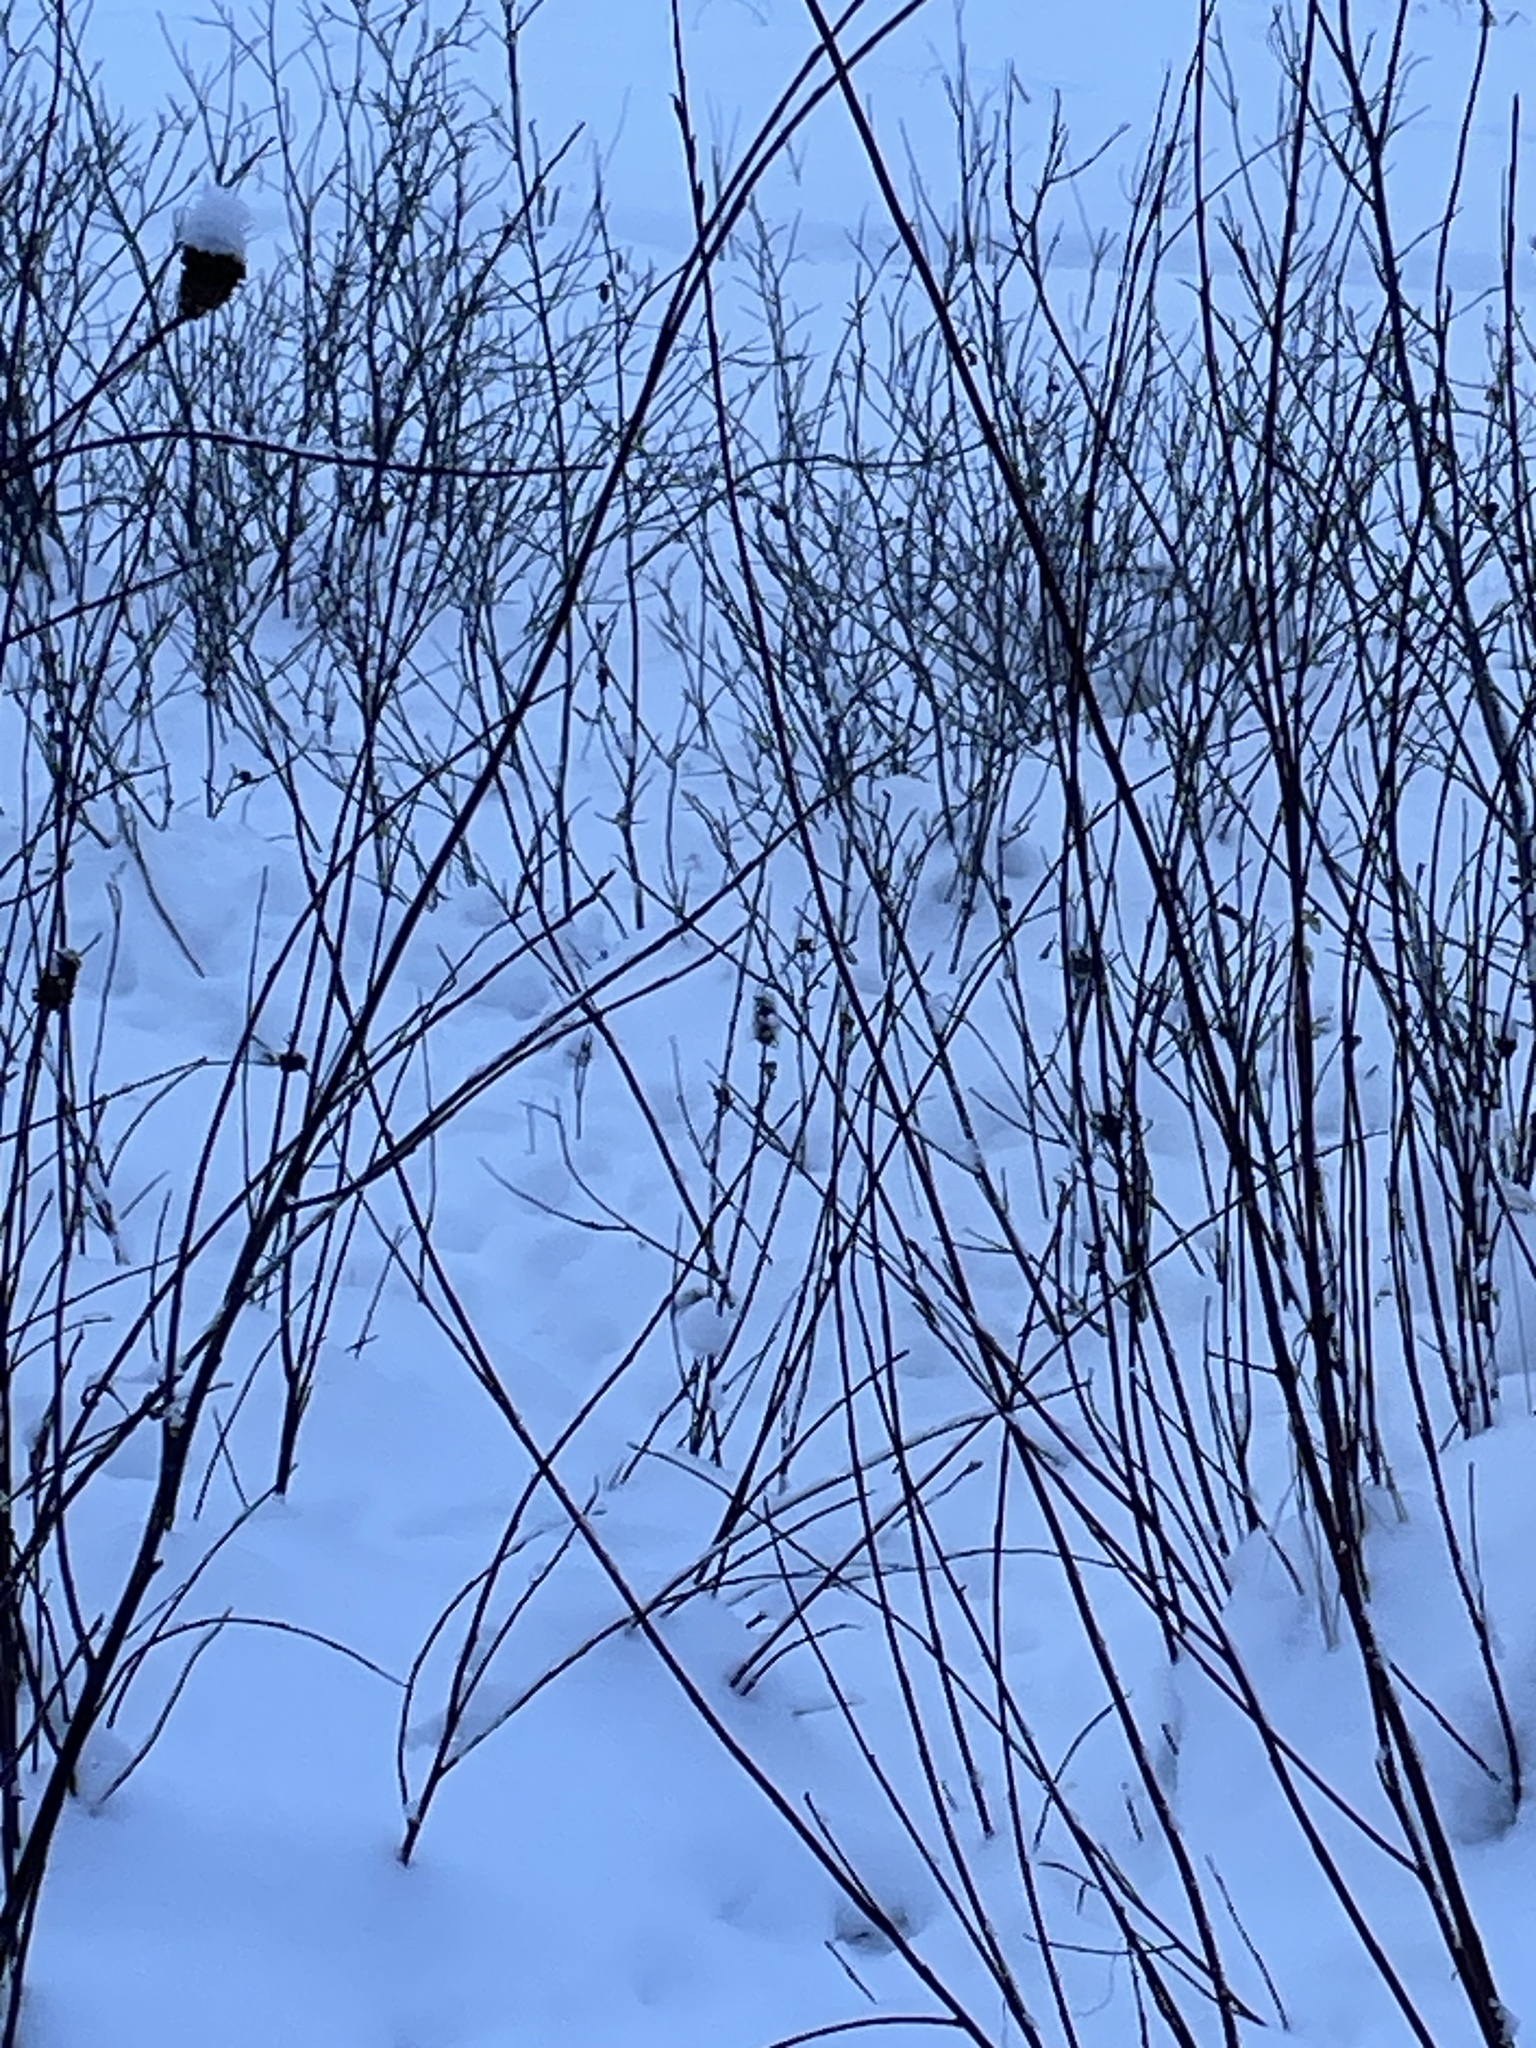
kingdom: Animalia
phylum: Chordata
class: Aves
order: Galliformes
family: Phasianidae
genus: Lagopus
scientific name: Lagopus lagopus
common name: Willow ptarmigan
